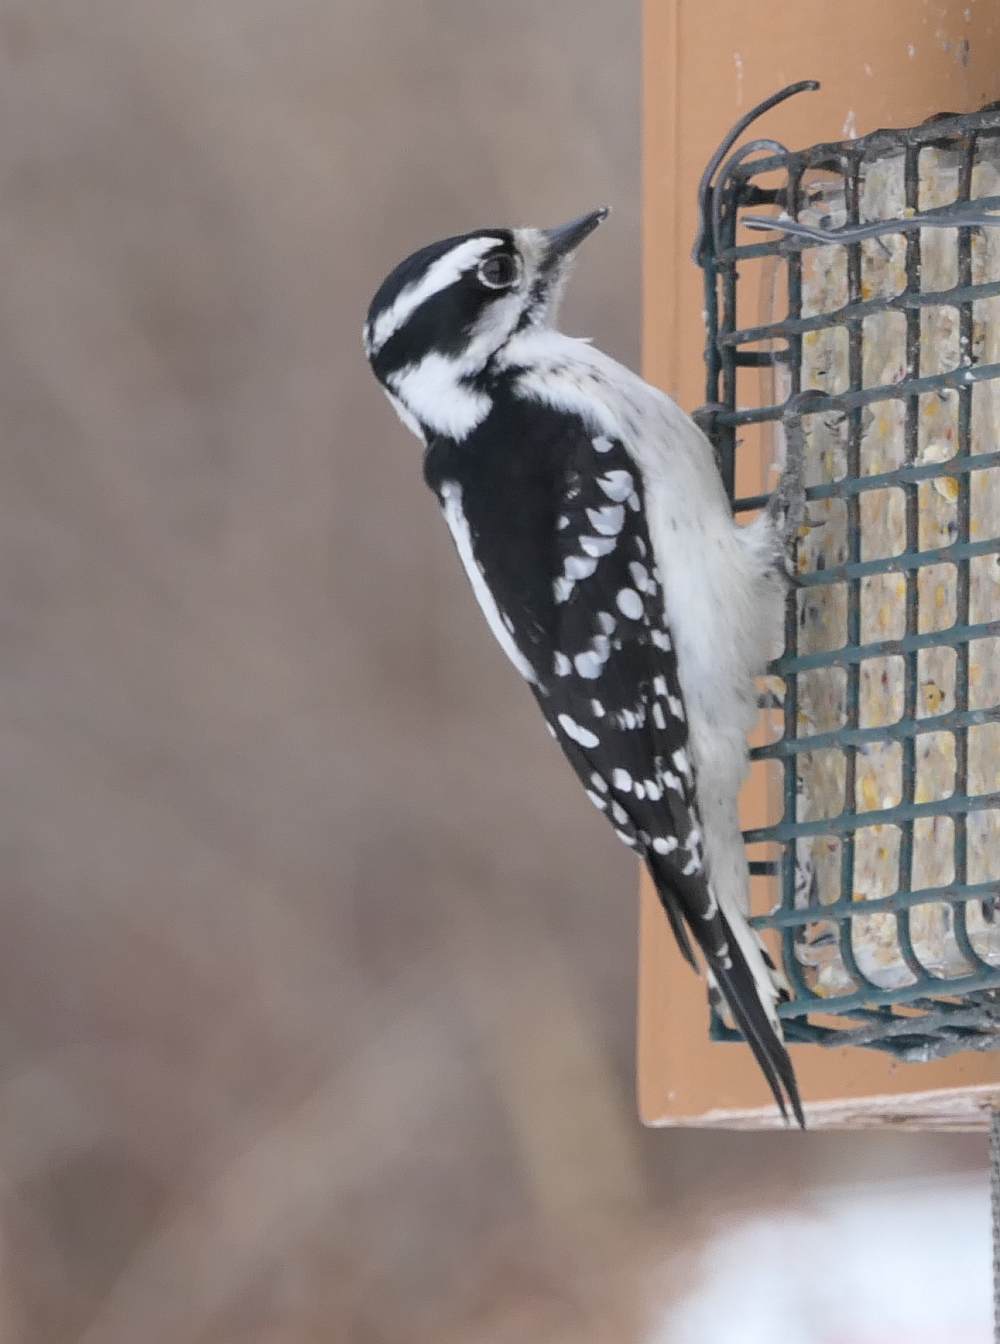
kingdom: Animalia
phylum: Chordata
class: Aves
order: Piciformes
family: Picidae
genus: Dryobates
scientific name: Dryobates pubescens
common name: Downy woodpecker
